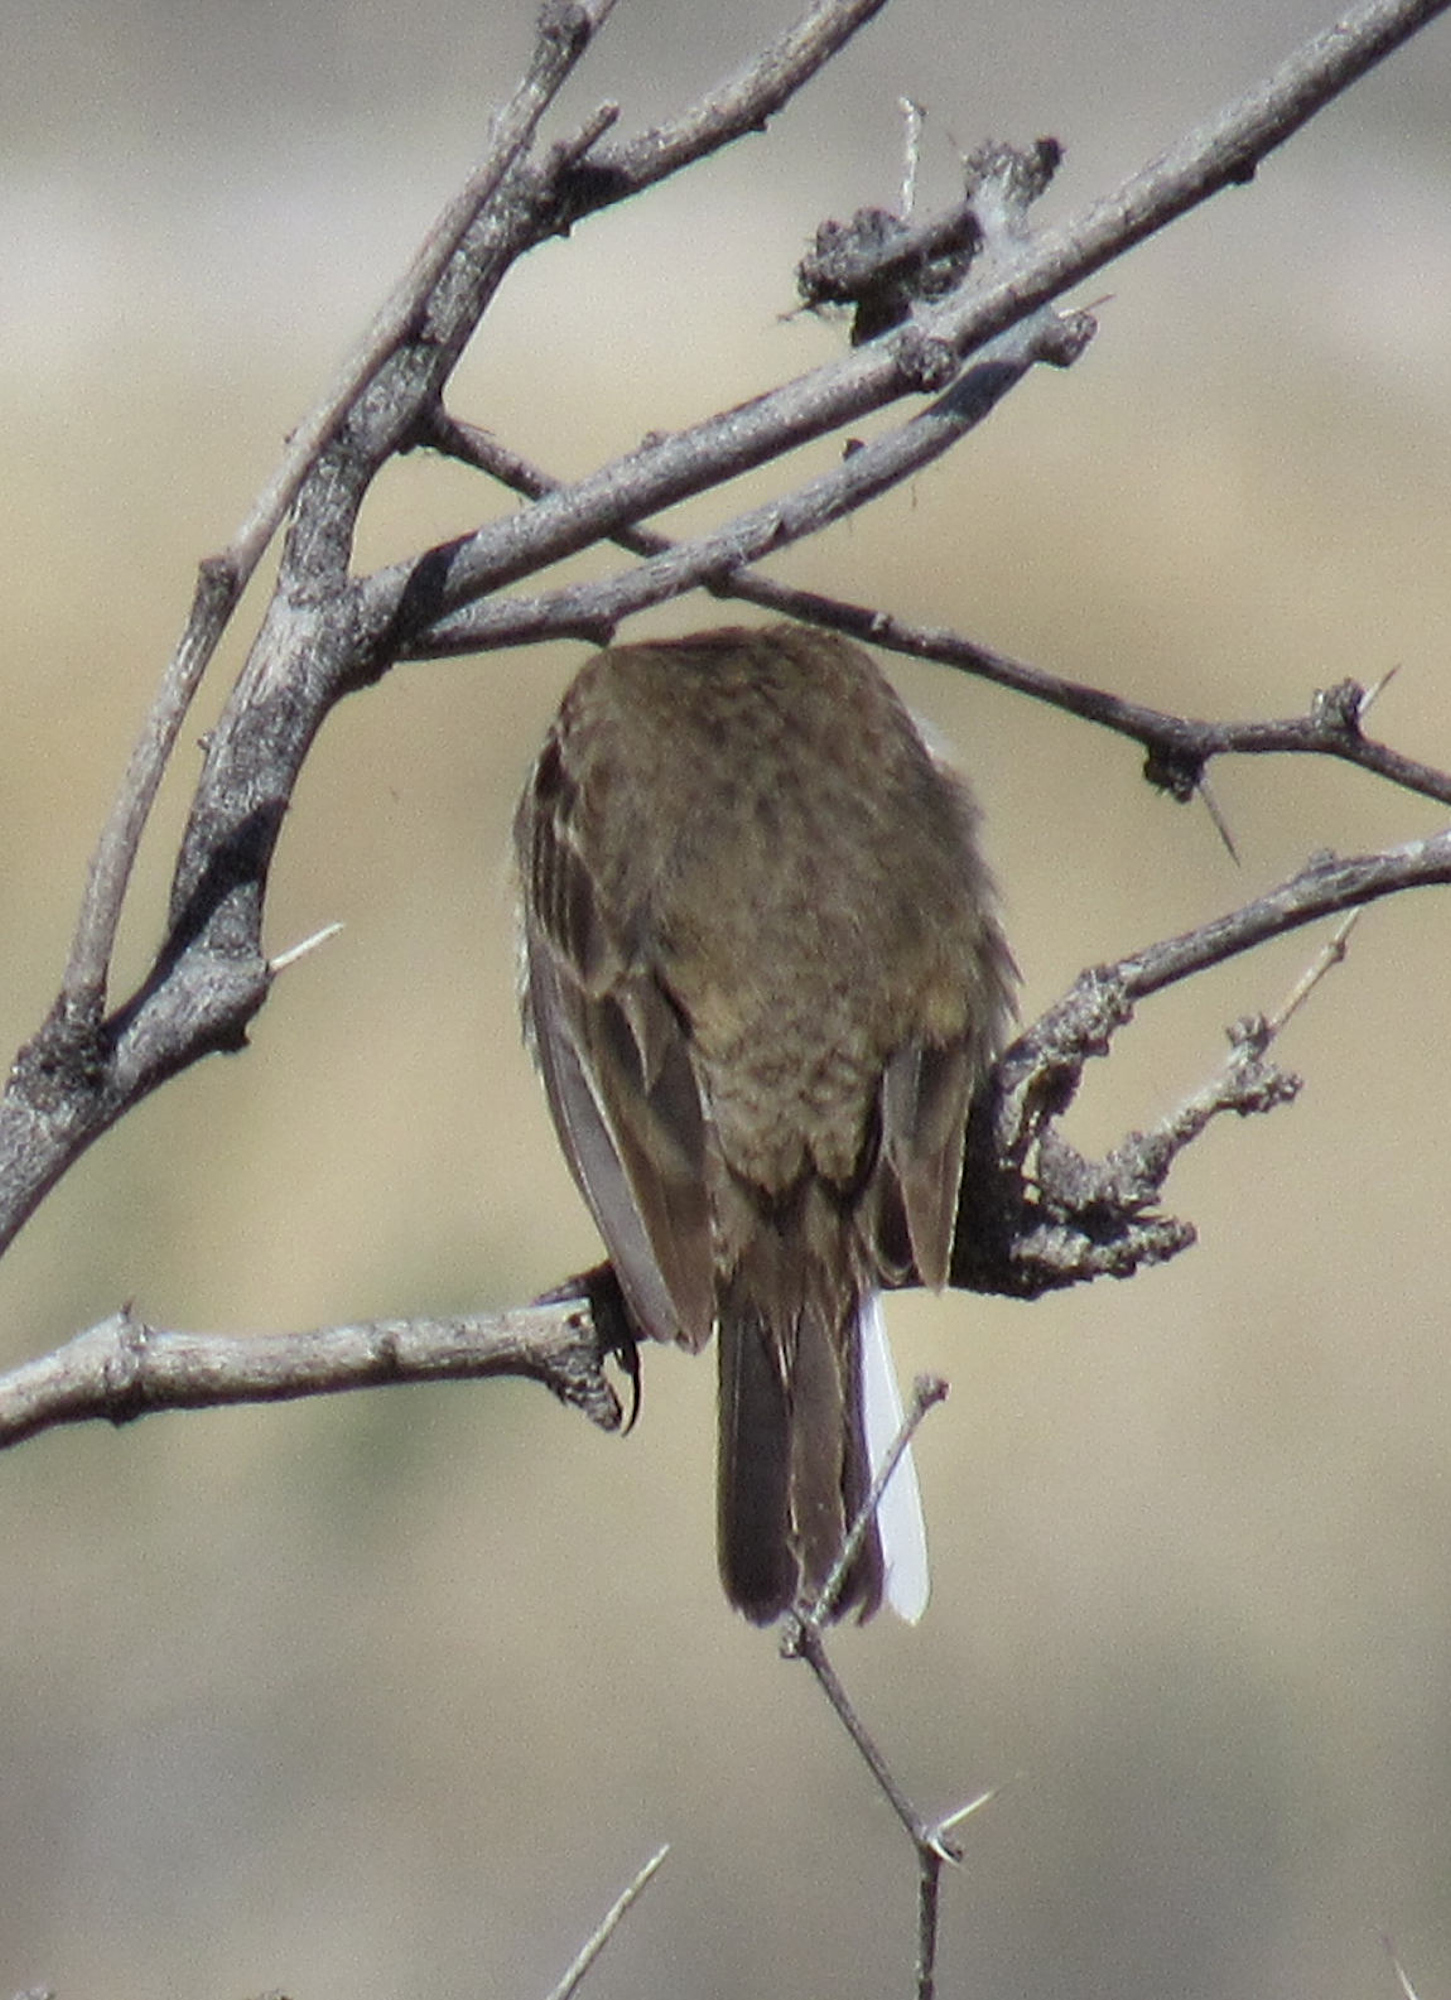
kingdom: Animalia
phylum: Chordata
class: Aves
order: Passeriformes
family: Motacillidae
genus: Anthus
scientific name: Anthus rubescens
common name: Buff-bellied pipit
